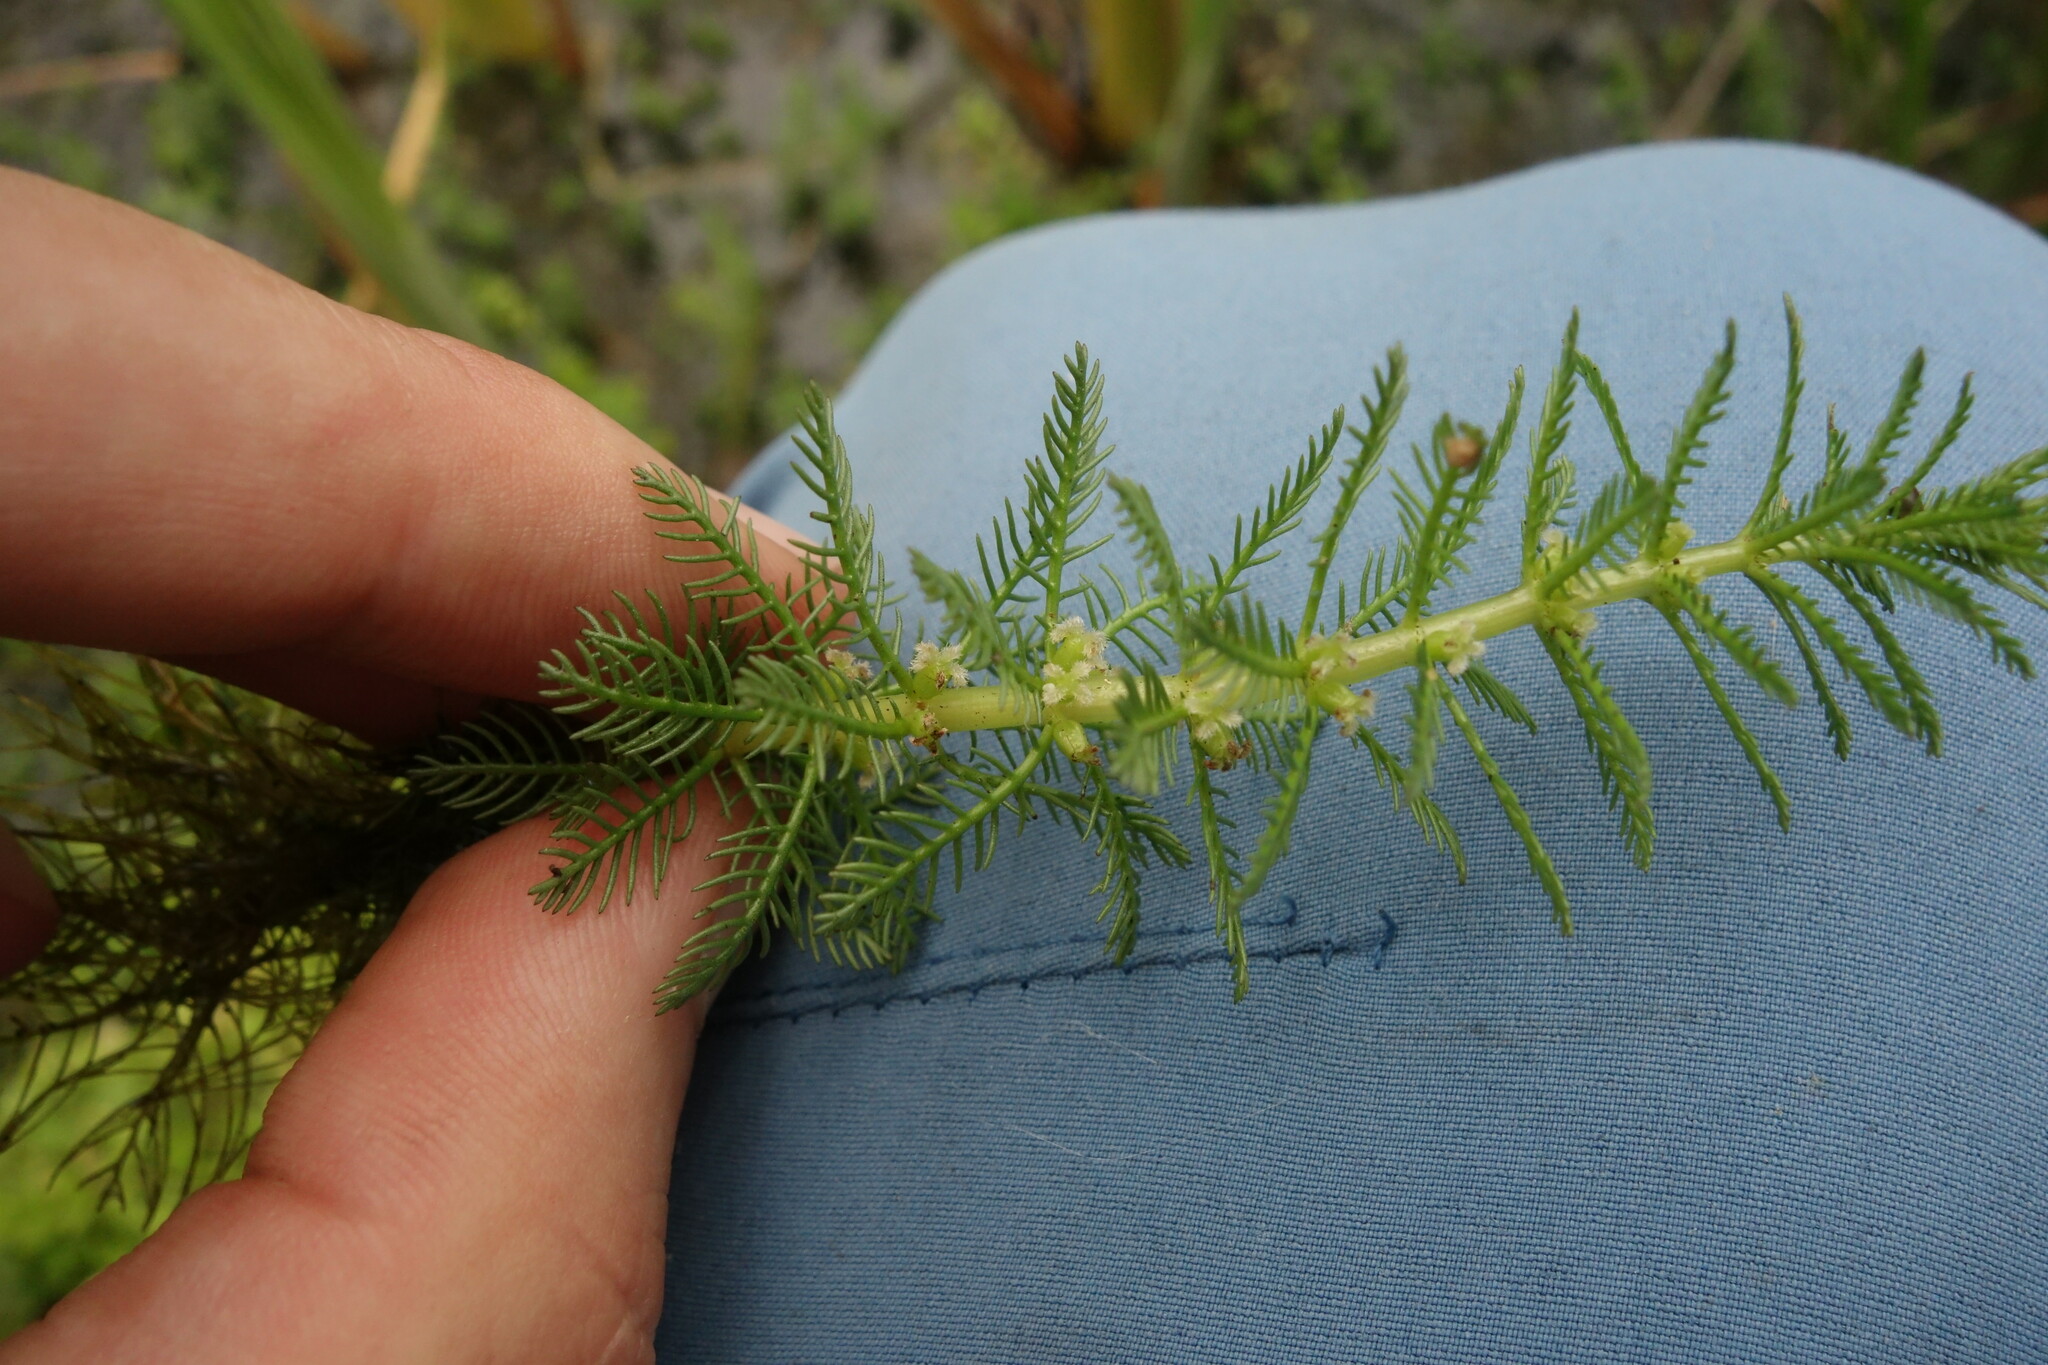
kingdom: Plantae
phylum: Tracheophyta
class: Magnoliopsida
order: Saxifragales
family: Haloragaceae
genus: Myriophyllum
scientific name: Myriophyllum verticillatum
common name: Whorled water-milfoil
